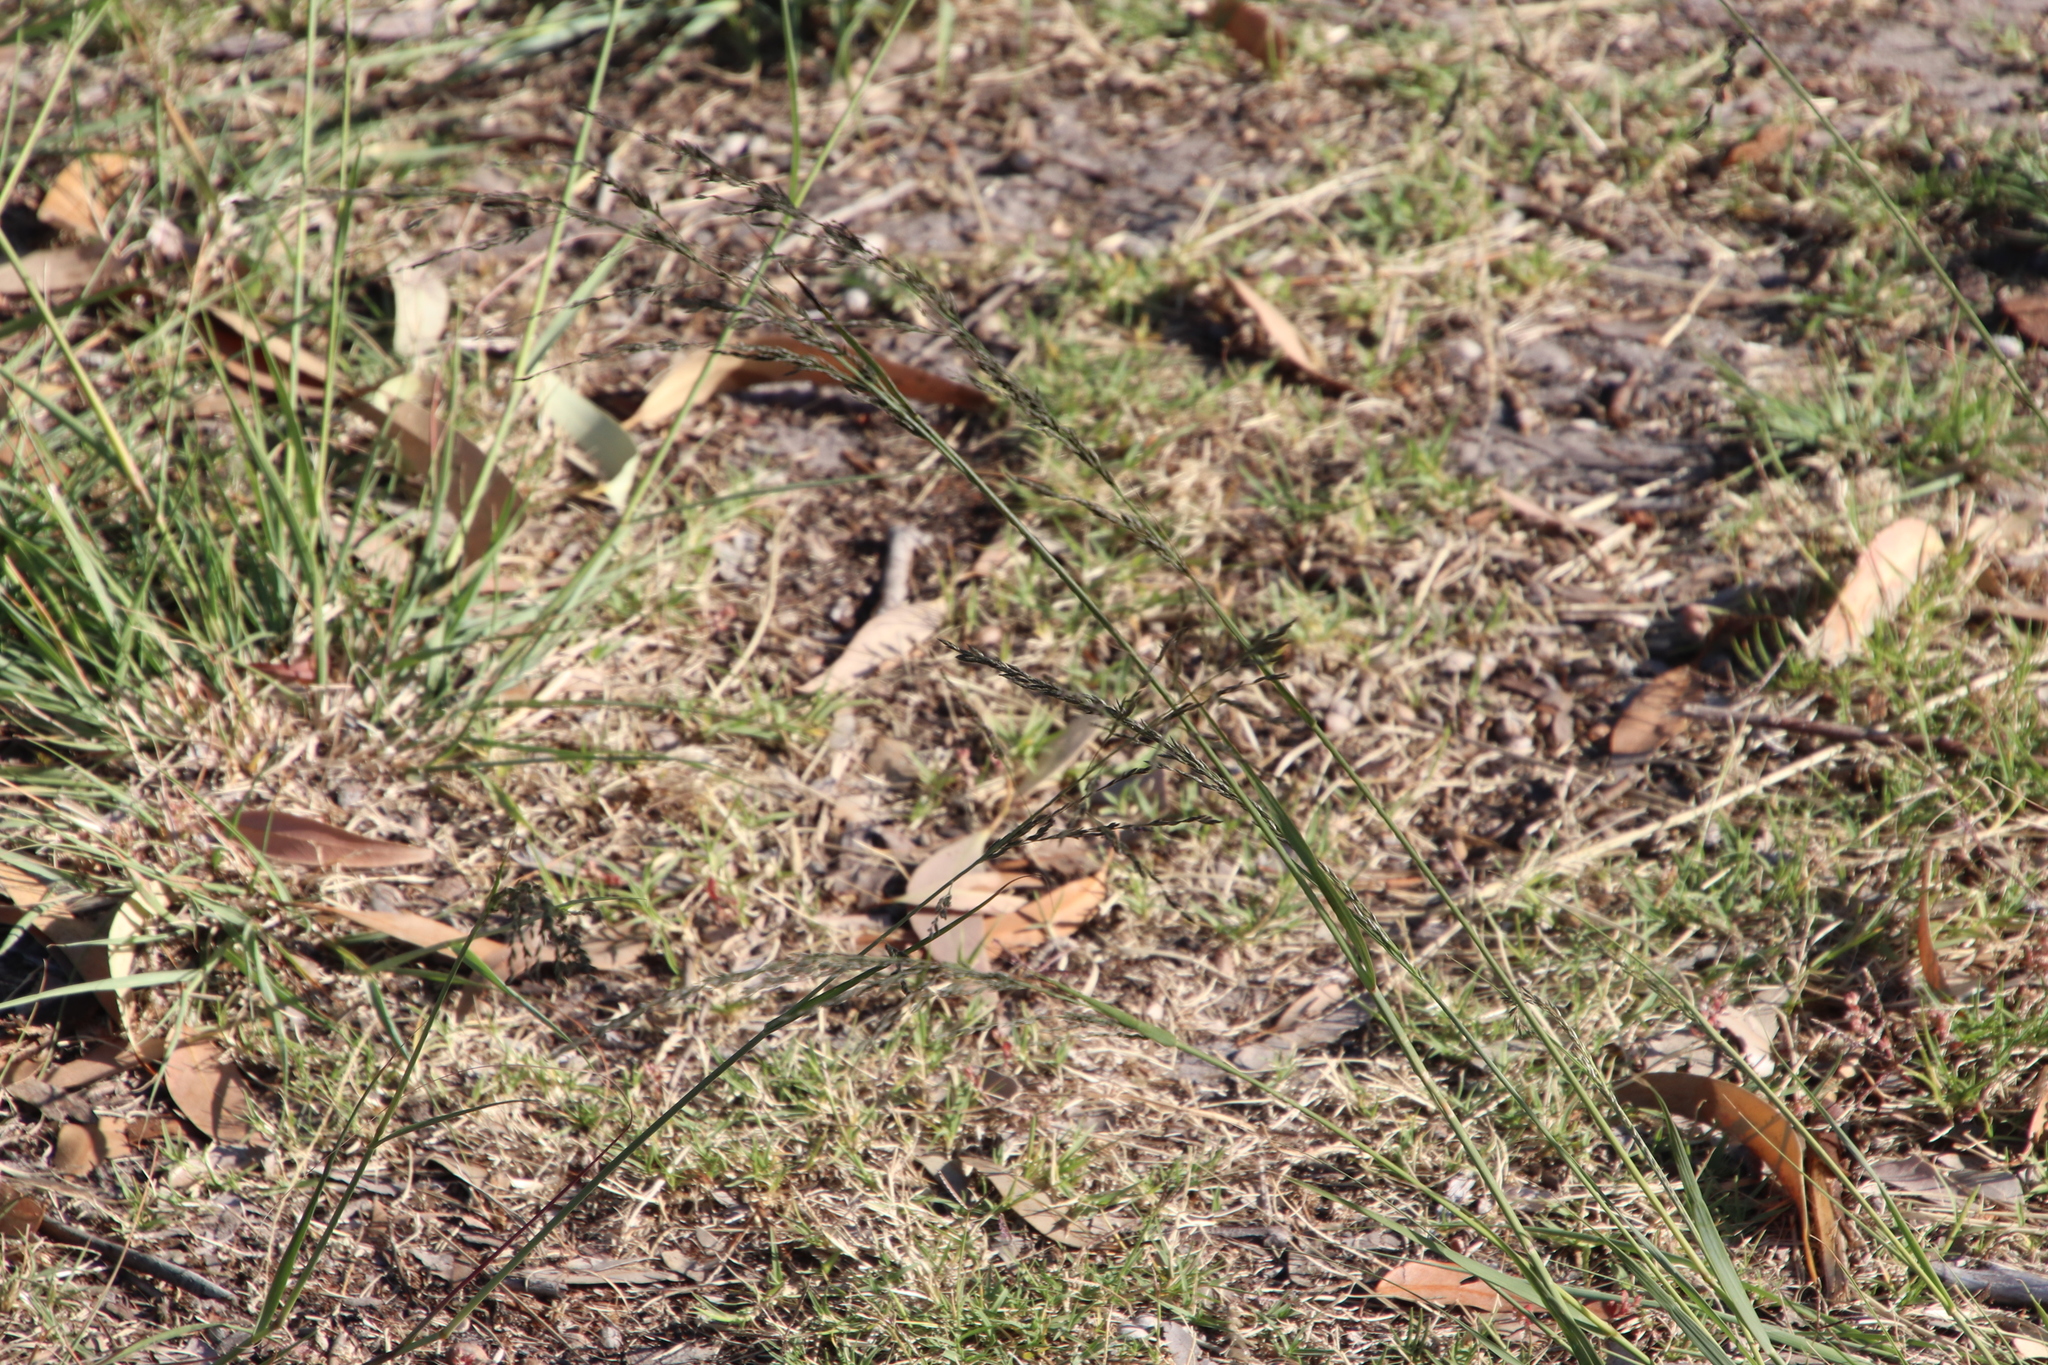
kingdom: Plantae
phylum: Tracheophyta
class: Liliopsida
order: Poales
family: Poaceae
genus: Eragrostis
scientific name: Eragrostis curvula
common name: African love-grass
